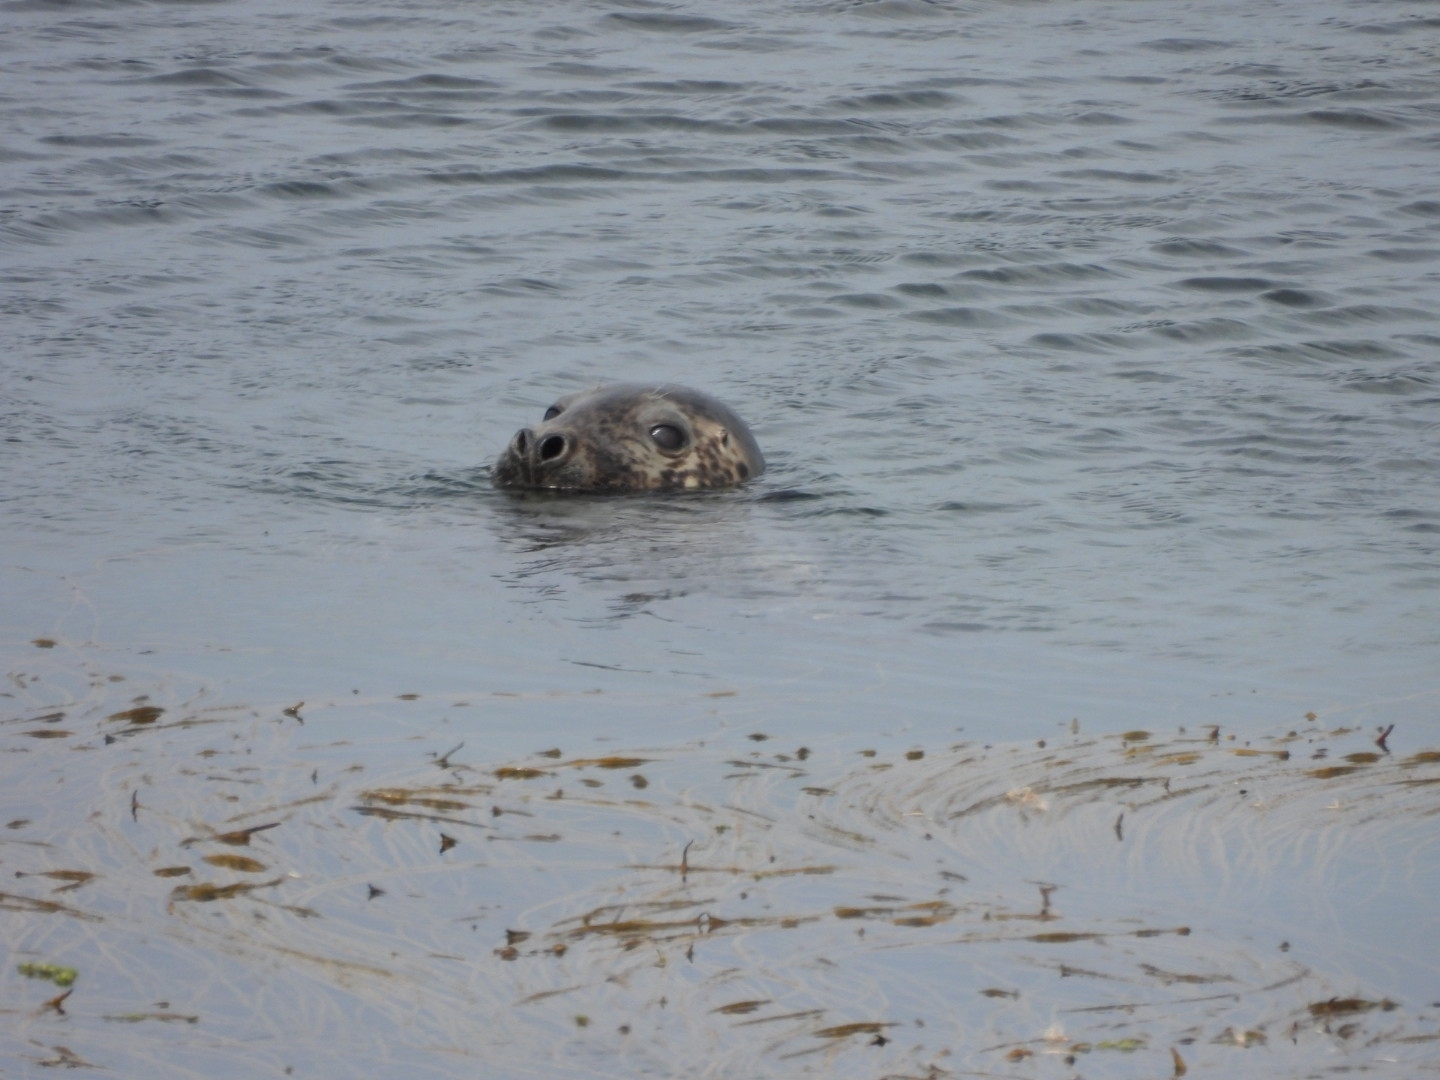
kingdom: Animalia
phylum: Chordata
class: Mammalia
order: Carnivora
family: Phocidae
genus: Halichoerus
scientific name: Halichoerus grypus
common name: Grey seal
